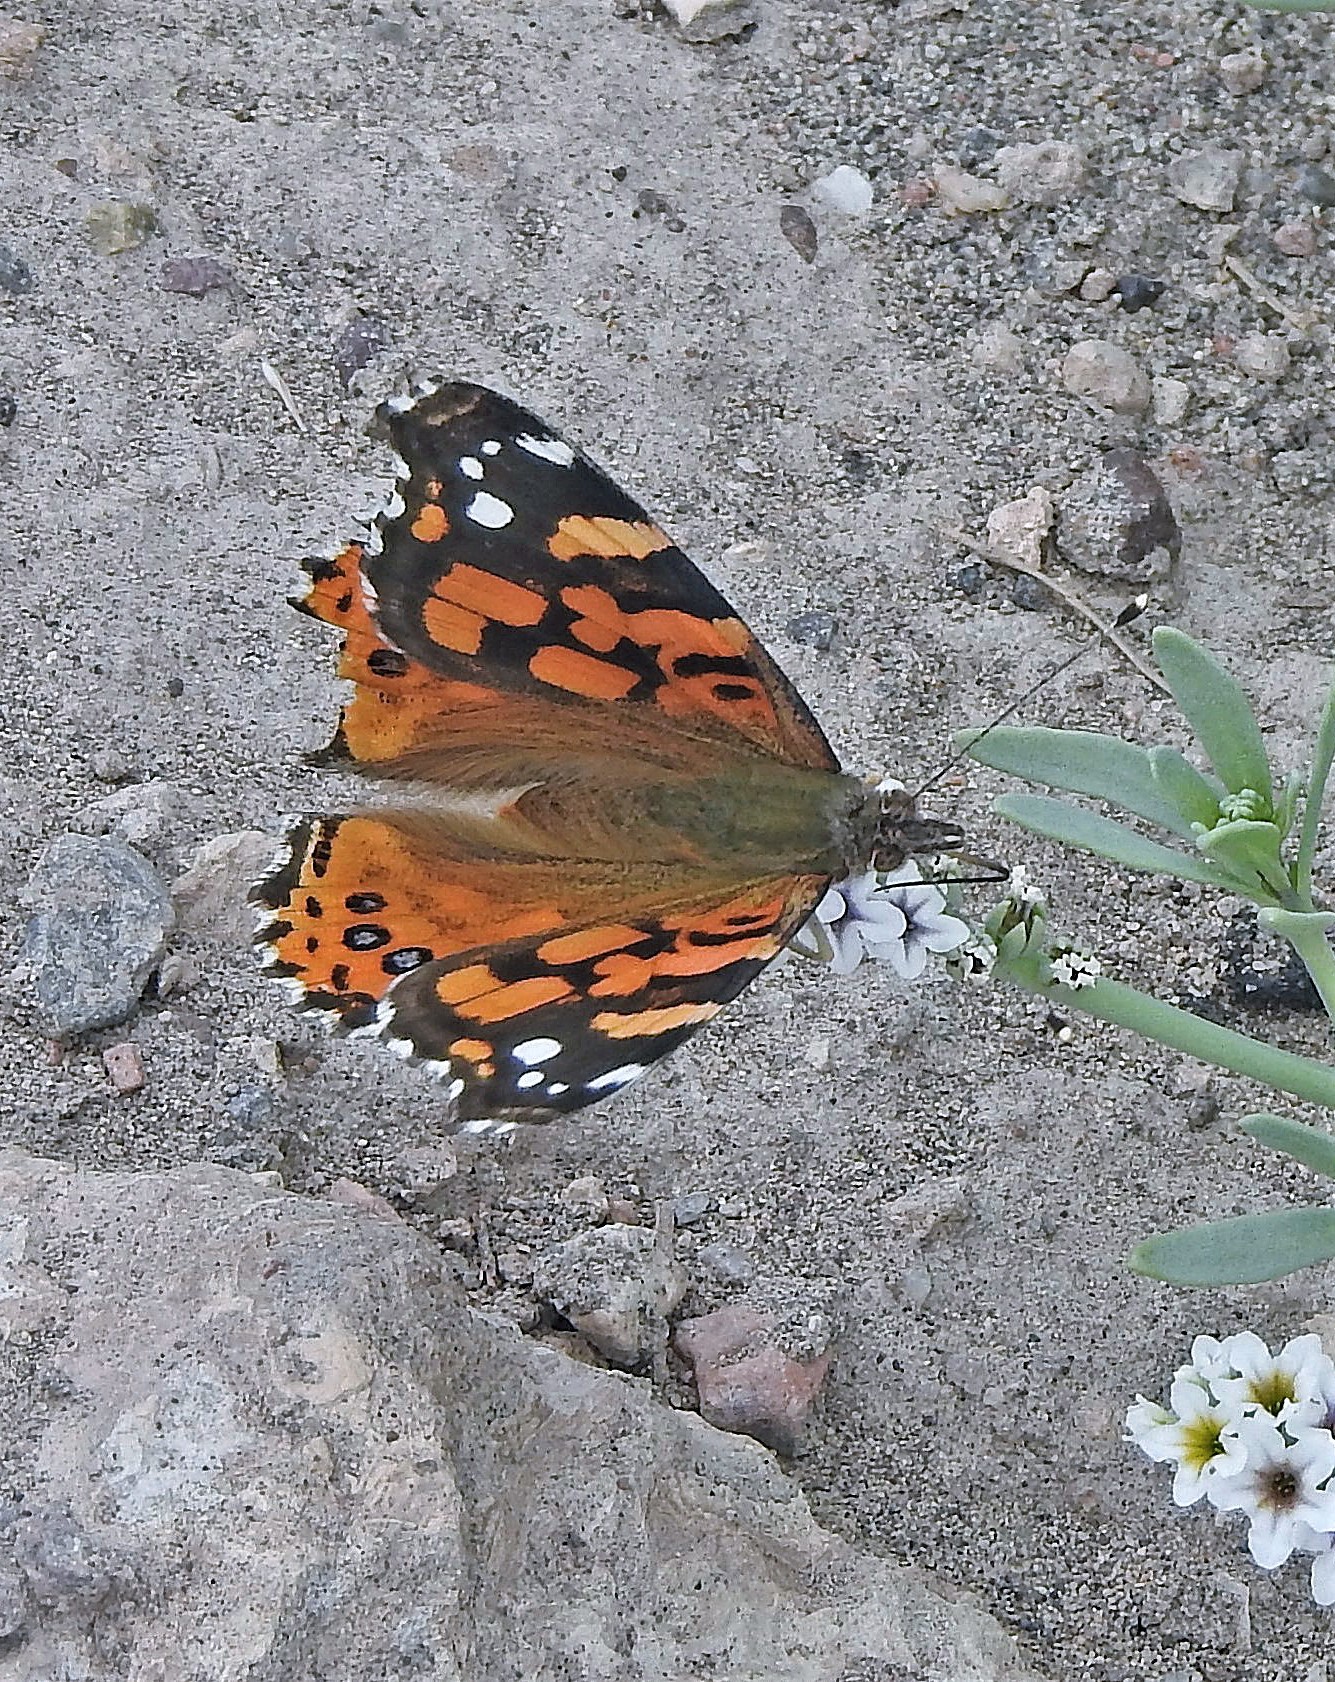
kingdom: Animalia
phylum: Arthropoda
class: Insecta
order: Lepidoptera
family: Nymphalidae
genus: Vanessa
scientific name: Vanessa carye
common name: Subtropical lady
